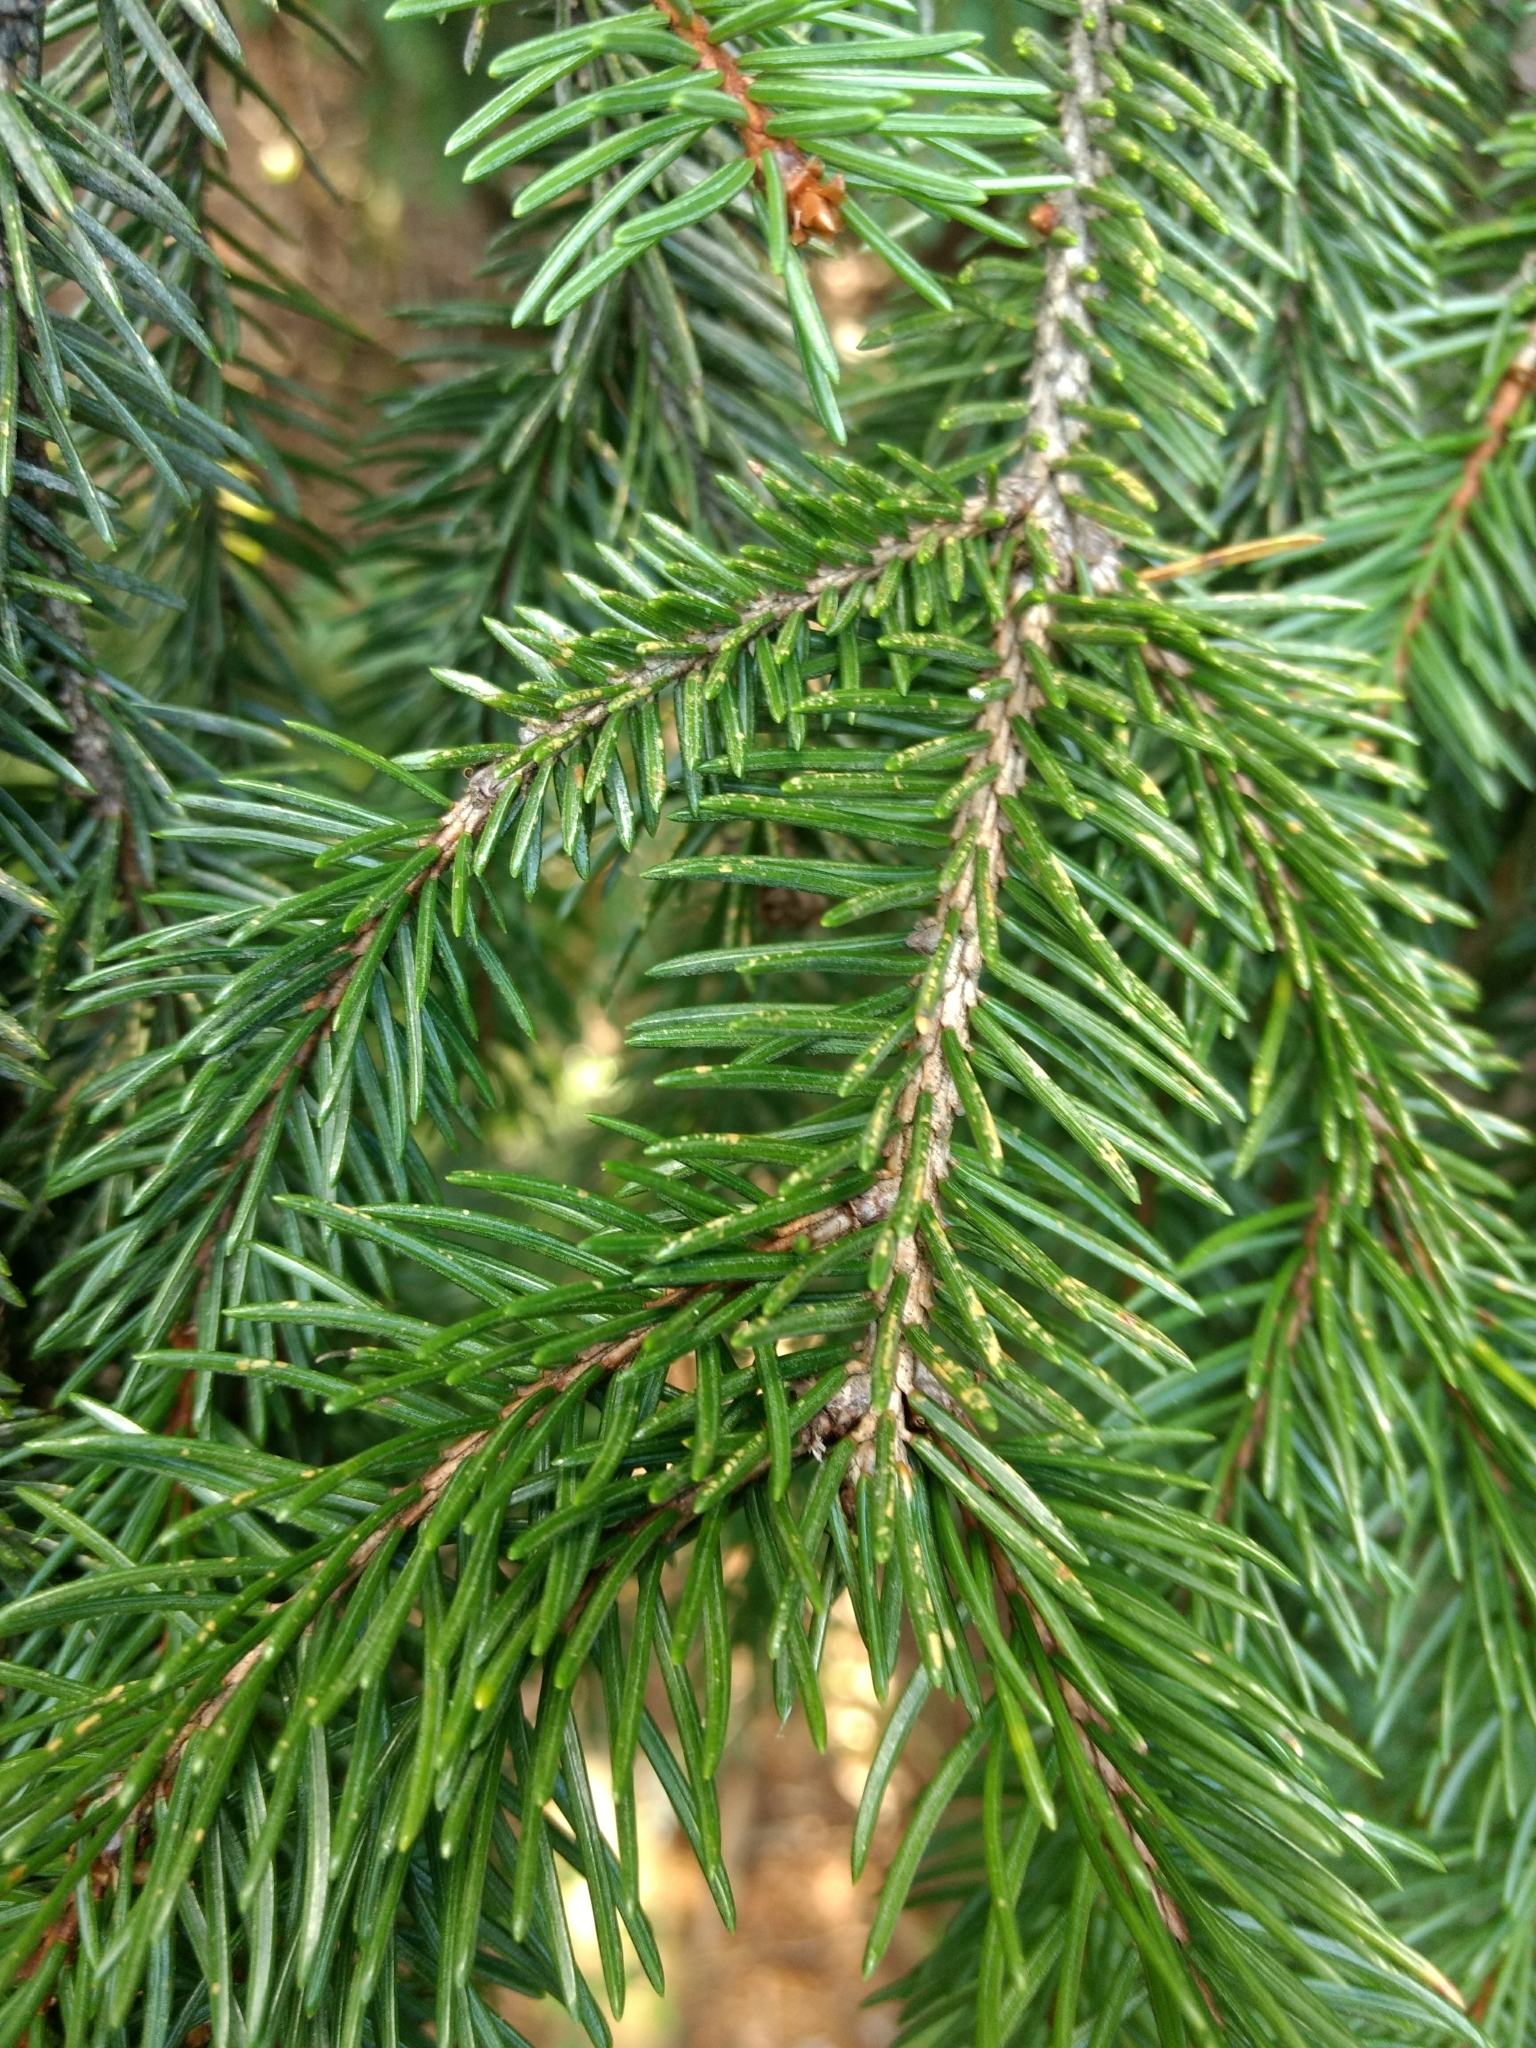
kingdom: Plantae
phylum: Tracheophyta
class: Pinopsida
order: Pinales
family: Pinaceae
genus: Picea
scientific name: Picea abies
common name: Norway spruce
